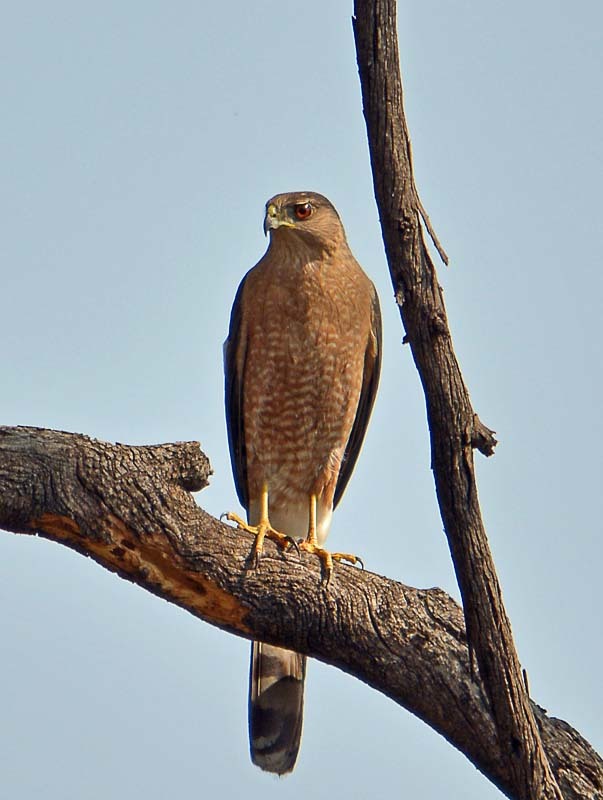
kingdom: Animalia
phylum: Chordata
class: Aves
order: Accipitriformes
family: Accipitridae
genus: Accipiter
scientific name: Accipiter cooperii
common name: Cooper's hawk
